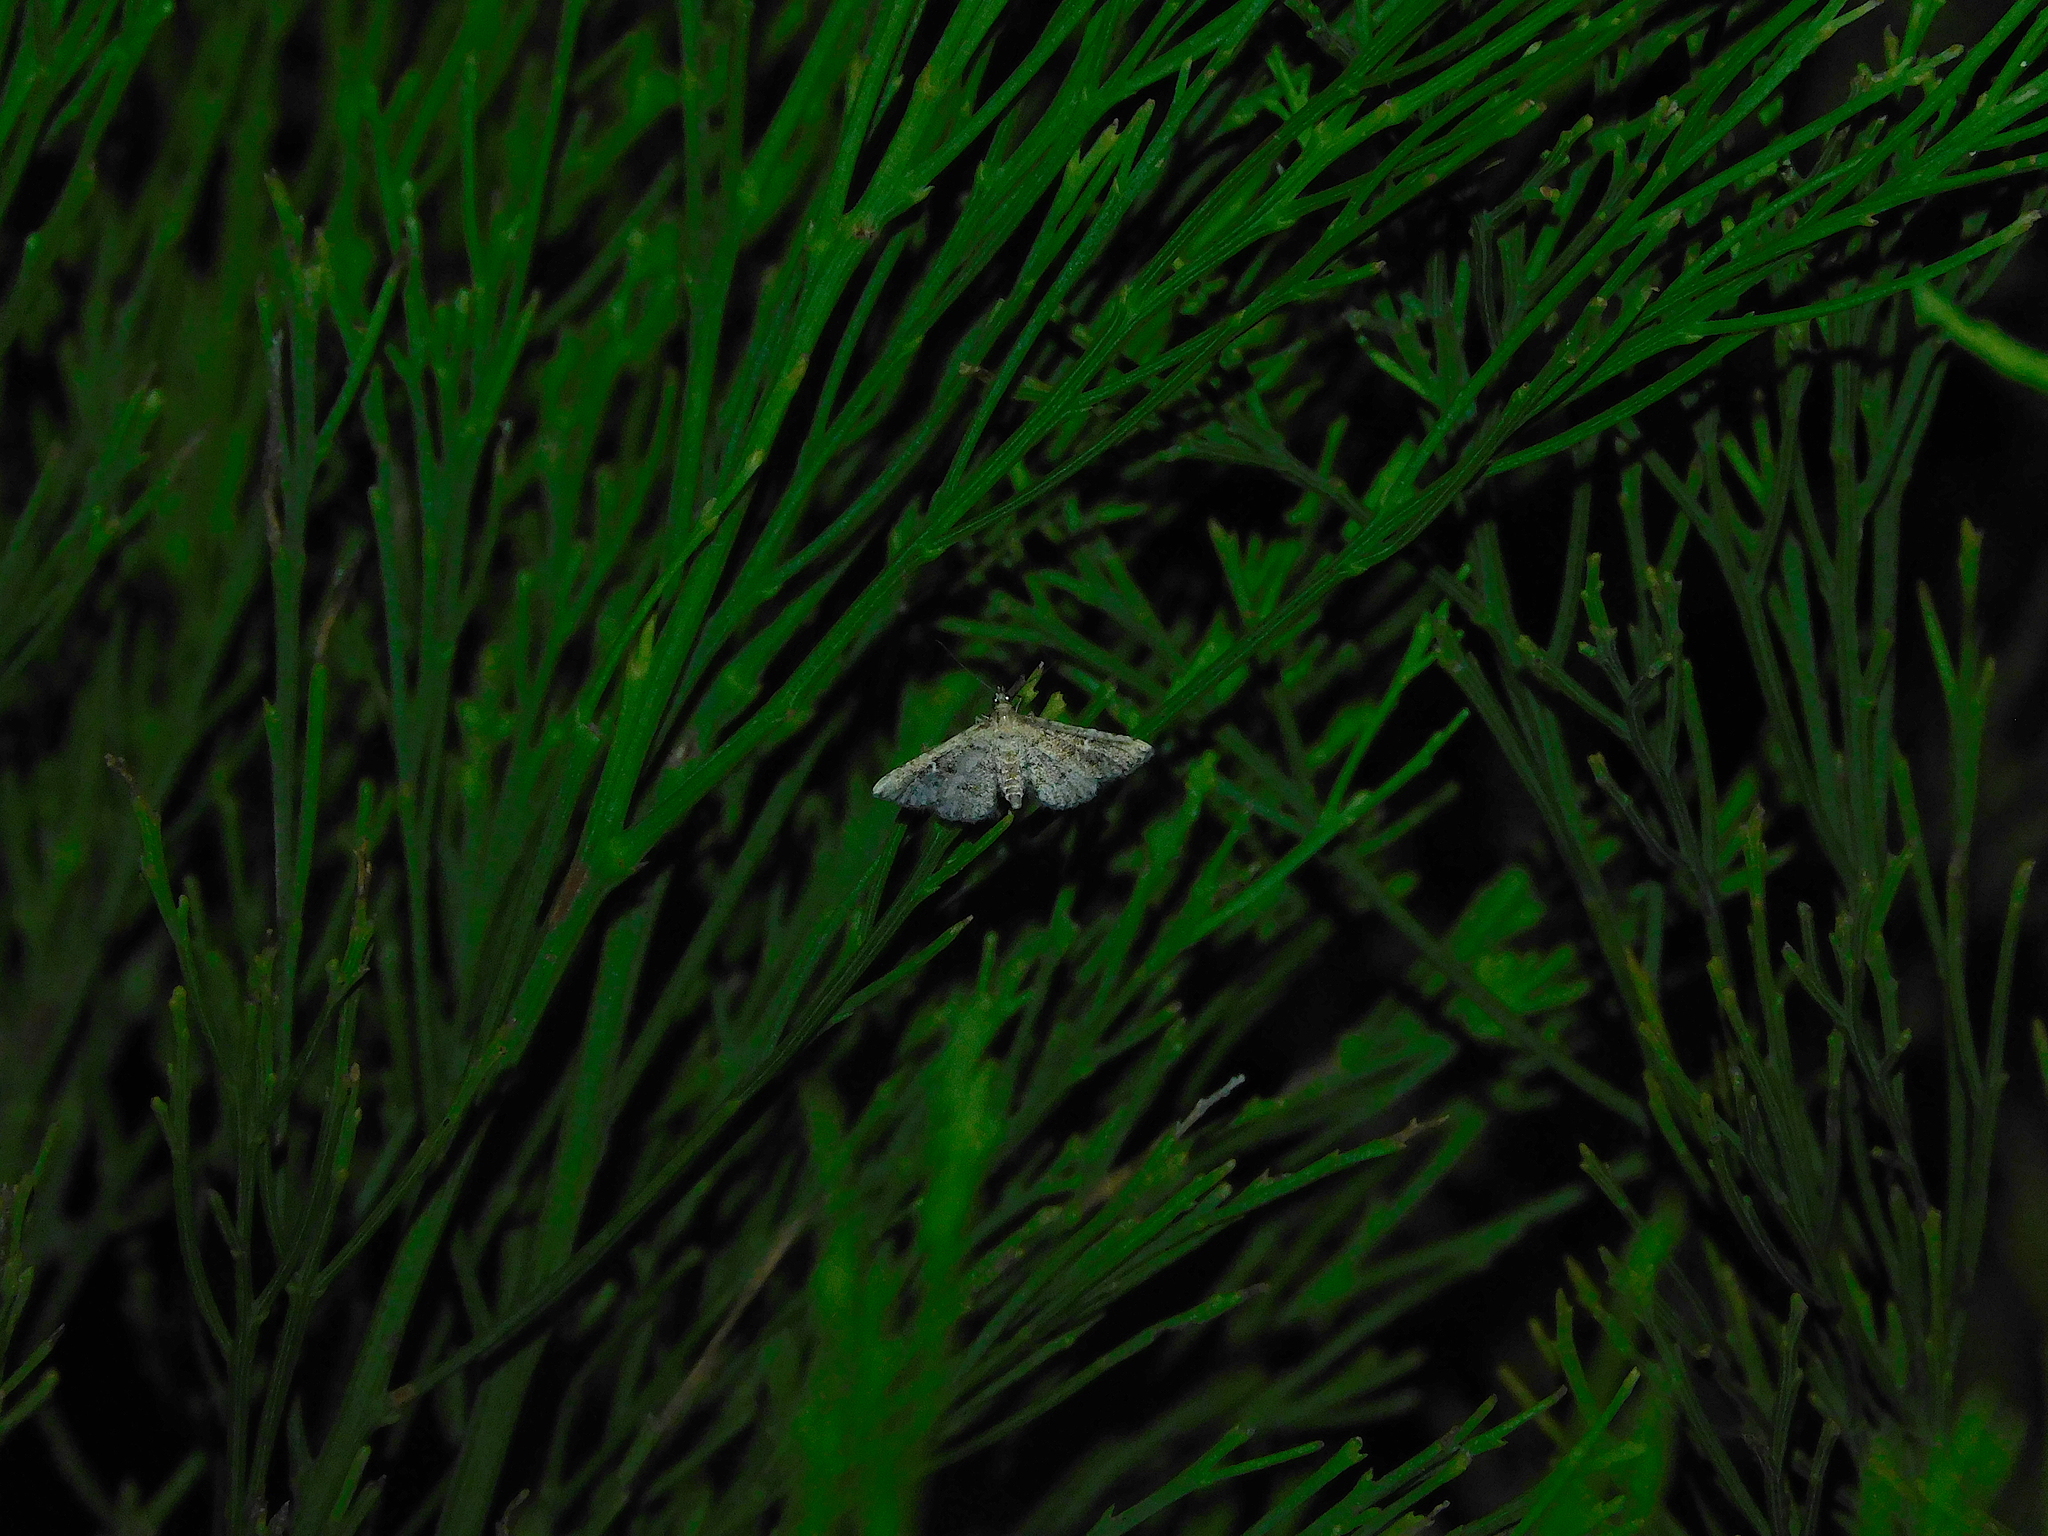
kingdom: Animalia
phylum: Arthropoda
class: Insecta
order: Lepidoptera
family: Crambidae
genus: Metasia
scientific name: Metasia capnochroa
